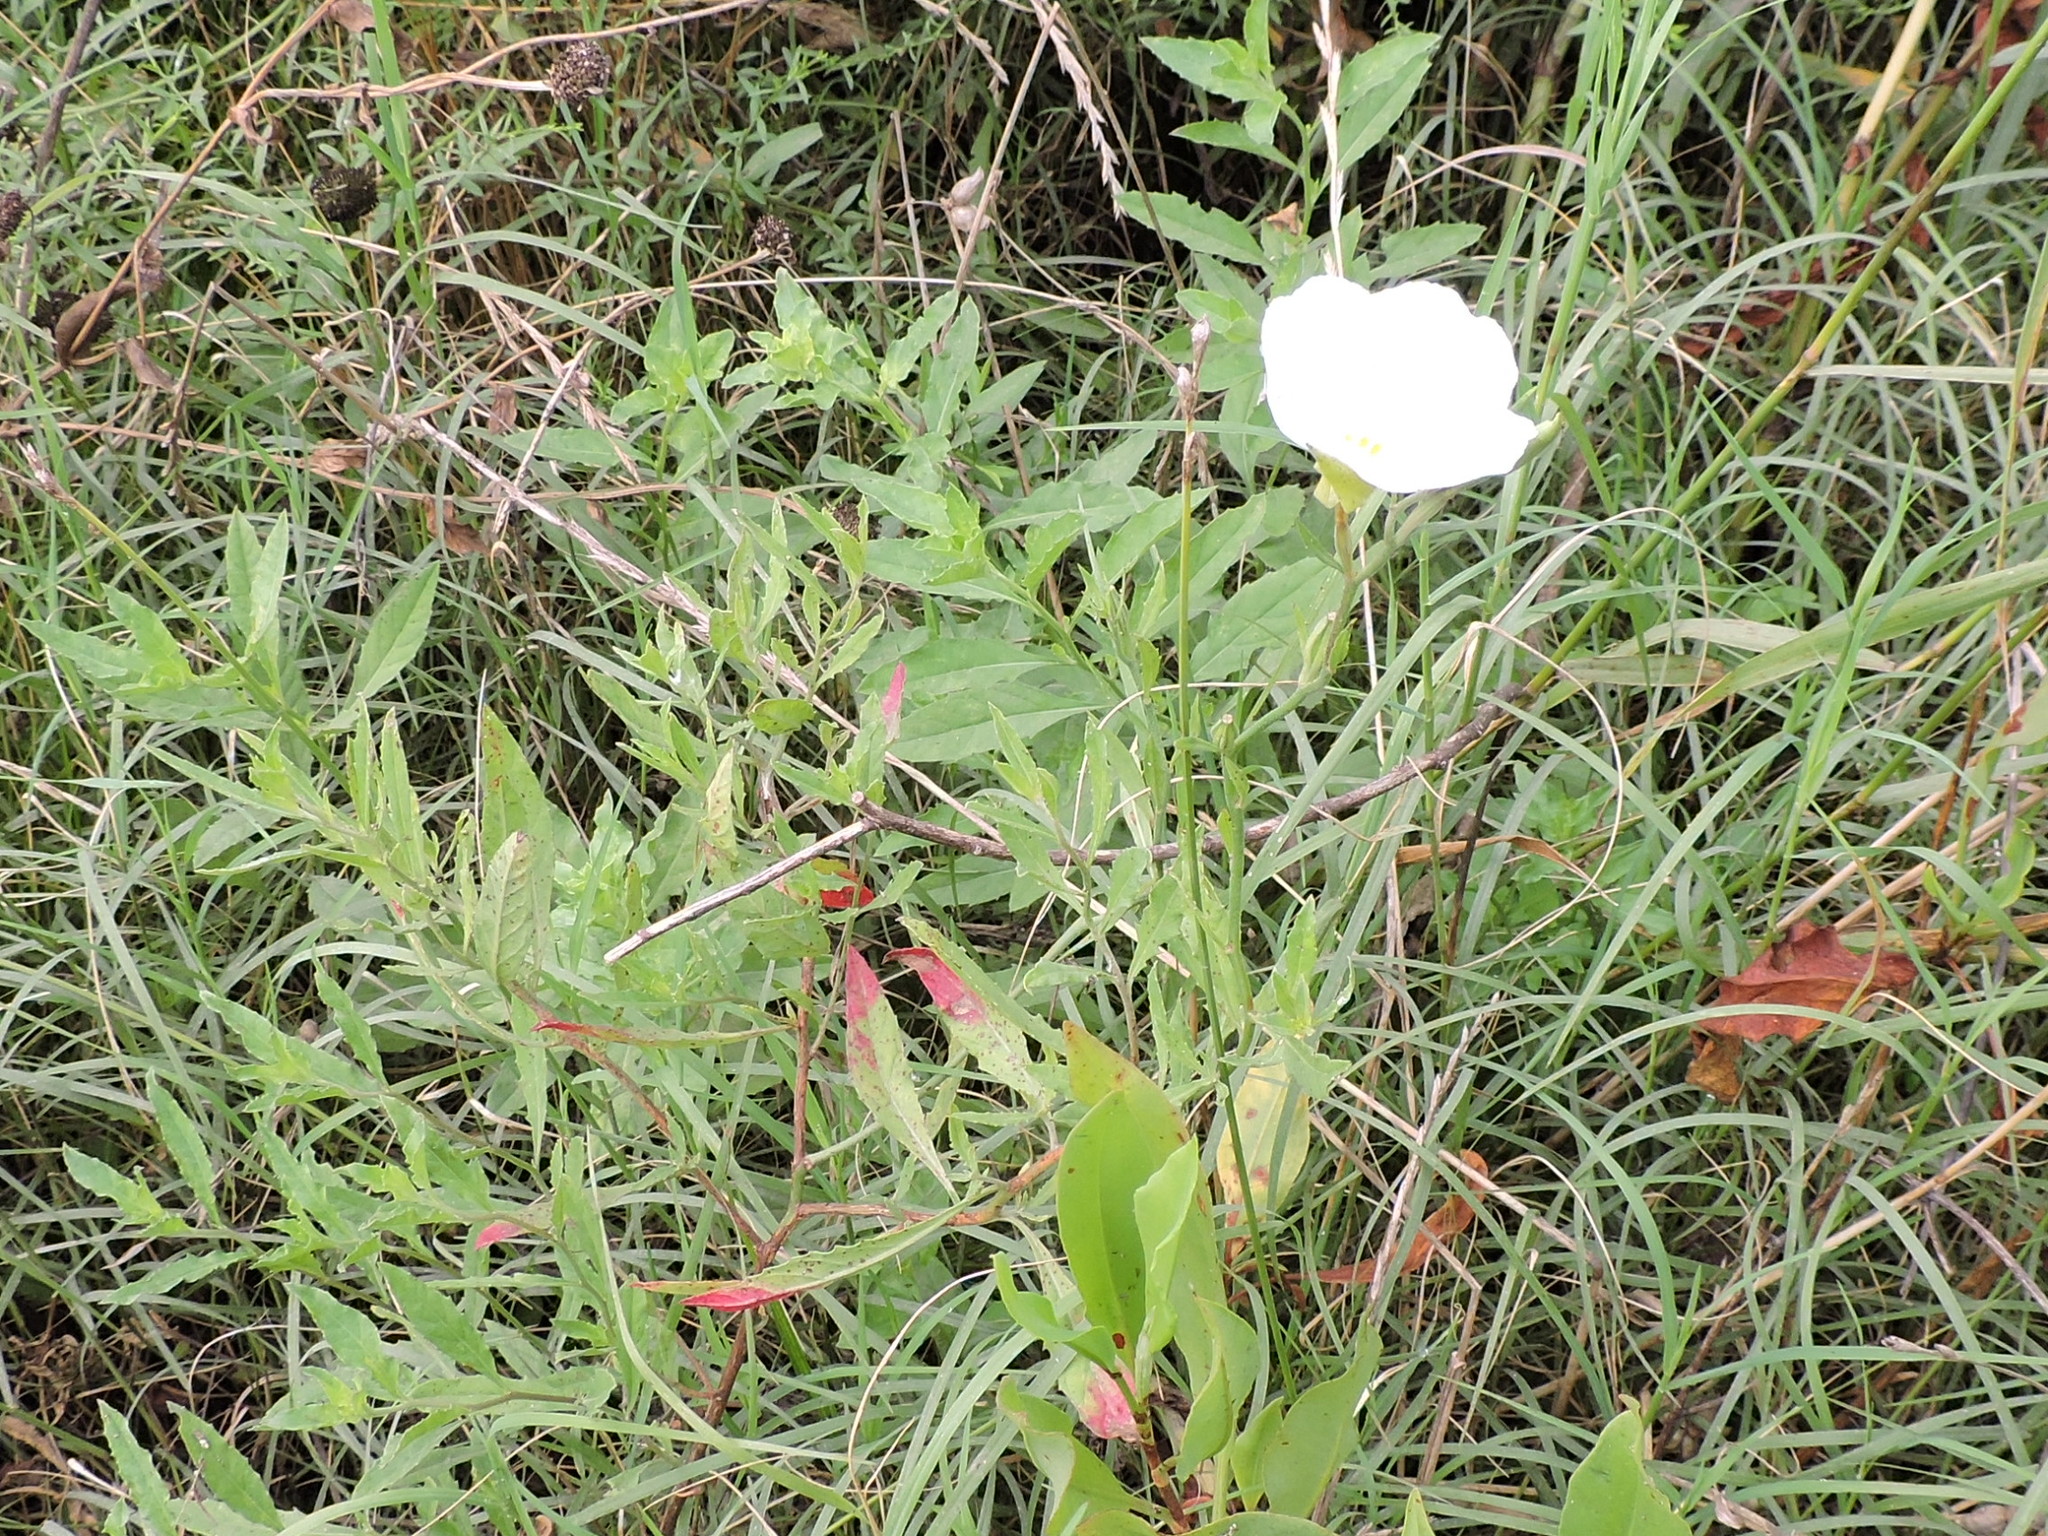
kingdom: Plantae
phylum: Tracheophyta
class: Magnoliopsida
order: Myrtales
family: Onagraceae
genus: Oenothera
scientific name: Oenothera speciosa
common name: White evening-primrose
